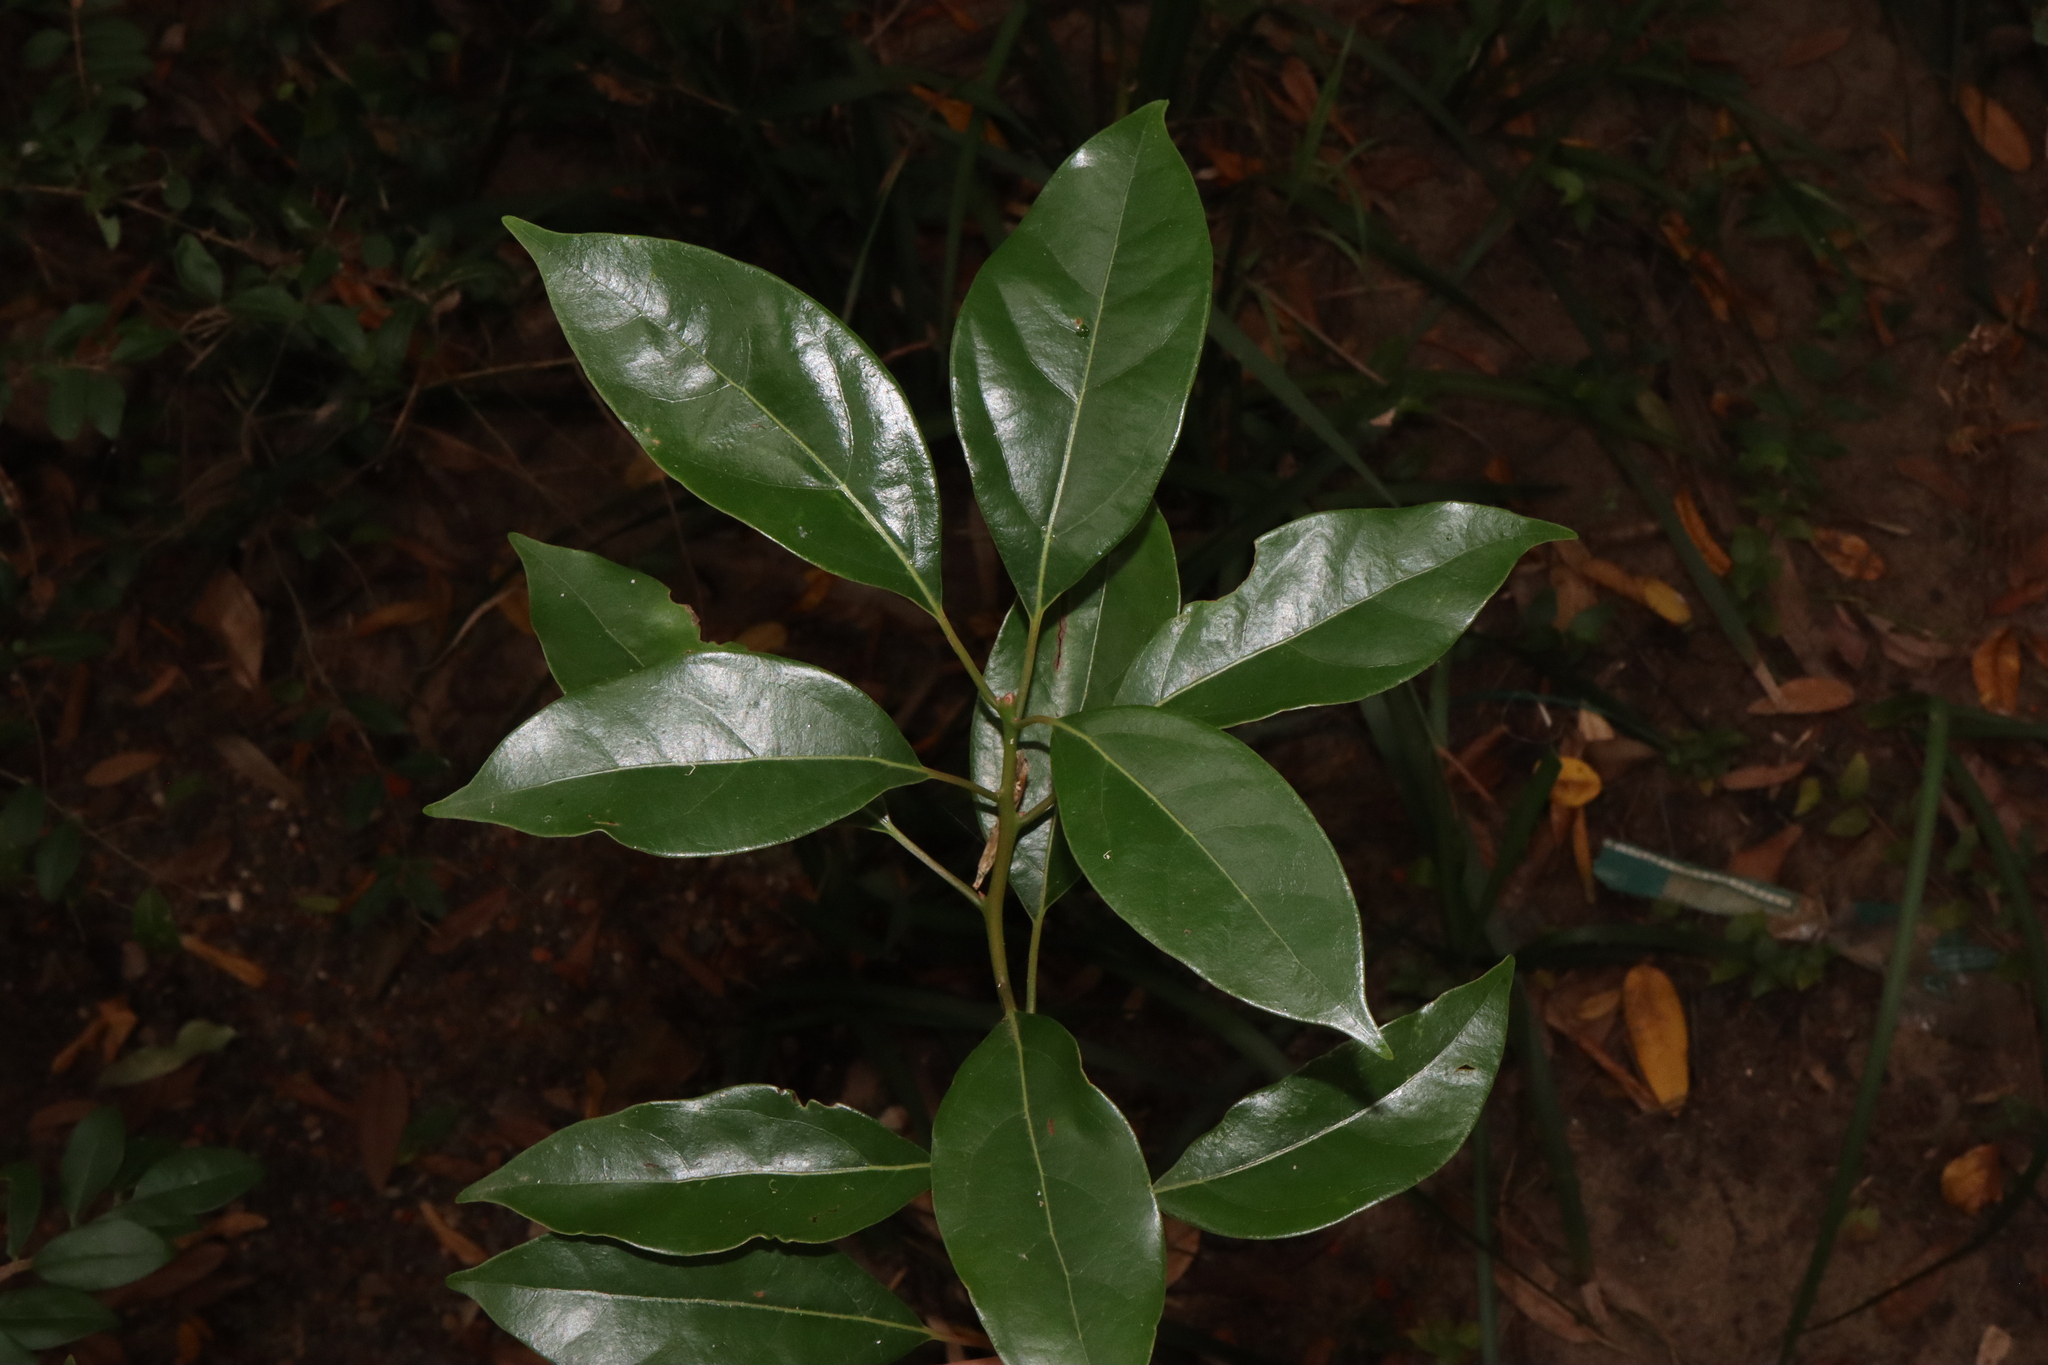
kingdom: Plantae
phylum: Tracheophyta
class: Magnoliopsida
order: Laurales
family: Lauraceae
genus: Cinnamomum
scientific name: Cinnamomum camphora
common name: Camphortree
